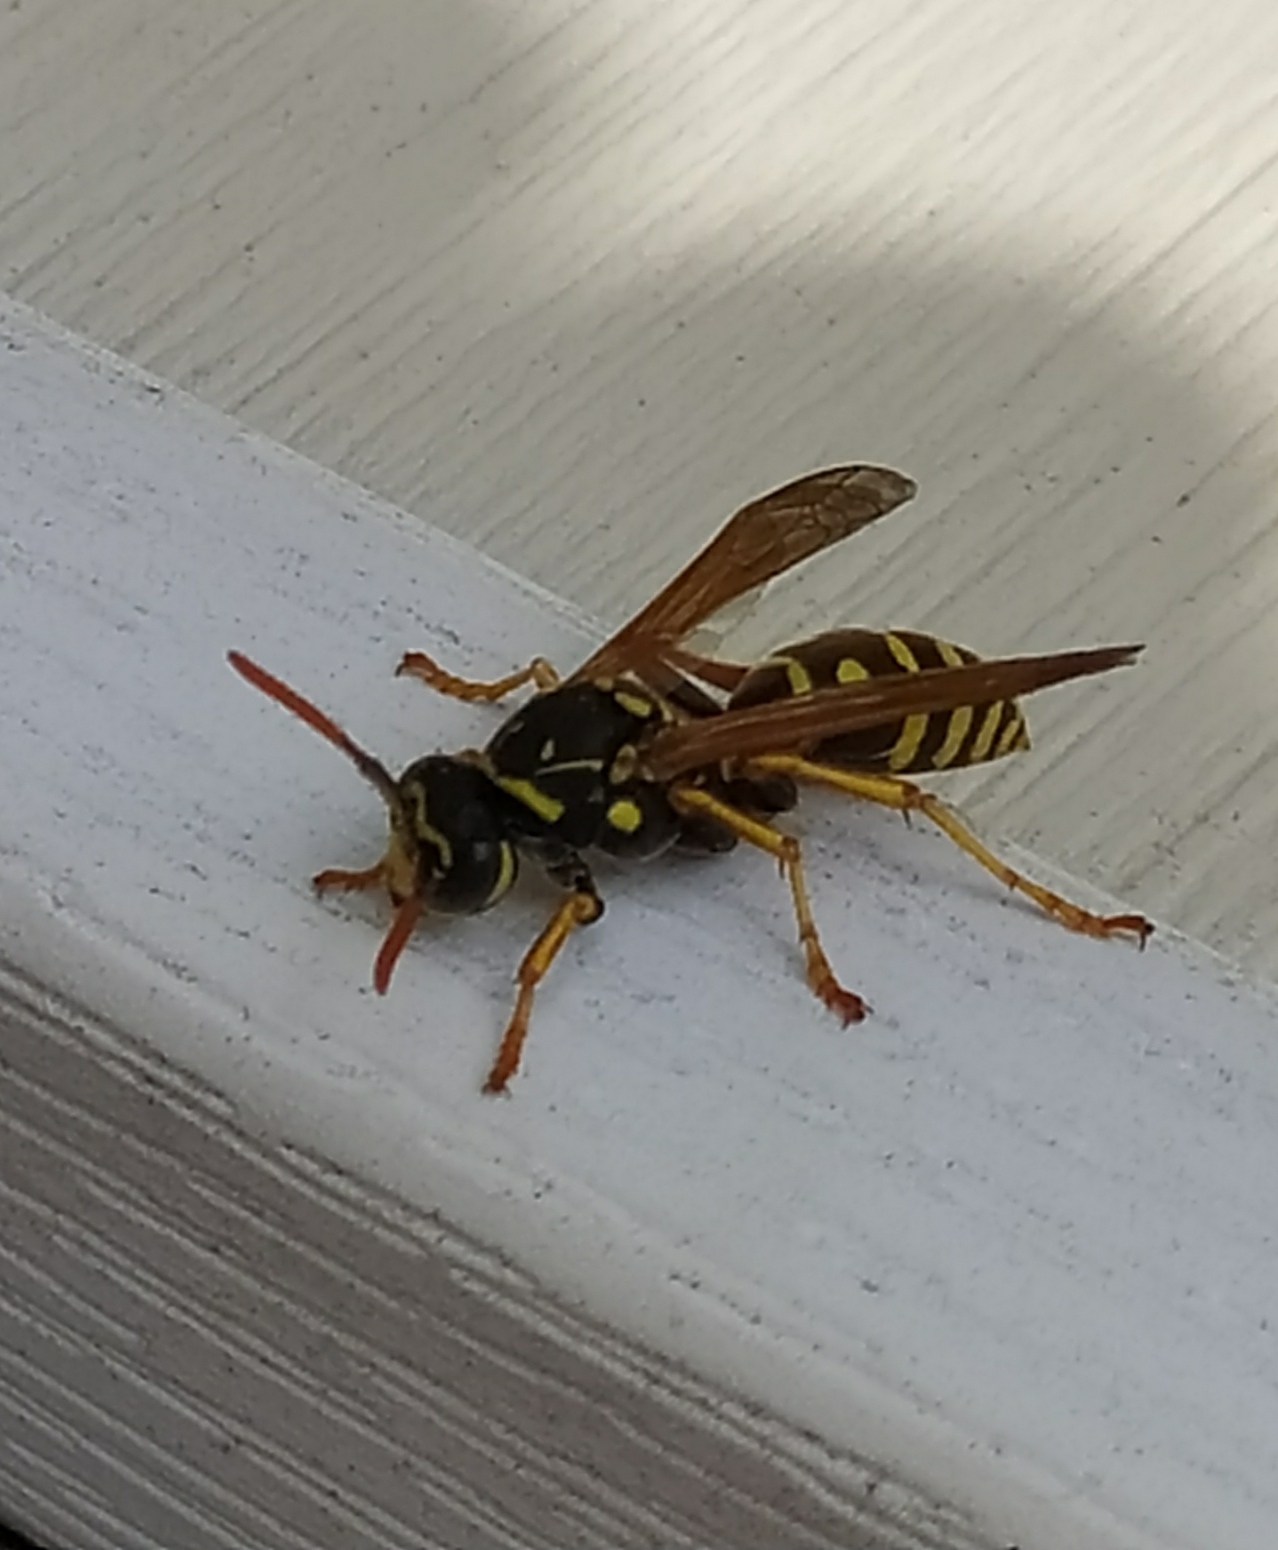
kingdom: Animalia
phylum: Arthropoda
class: Insecta
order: Hymenoptera
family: Eumenidae
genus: Polistes
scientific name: Polistes dominula
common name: Paper wasp
